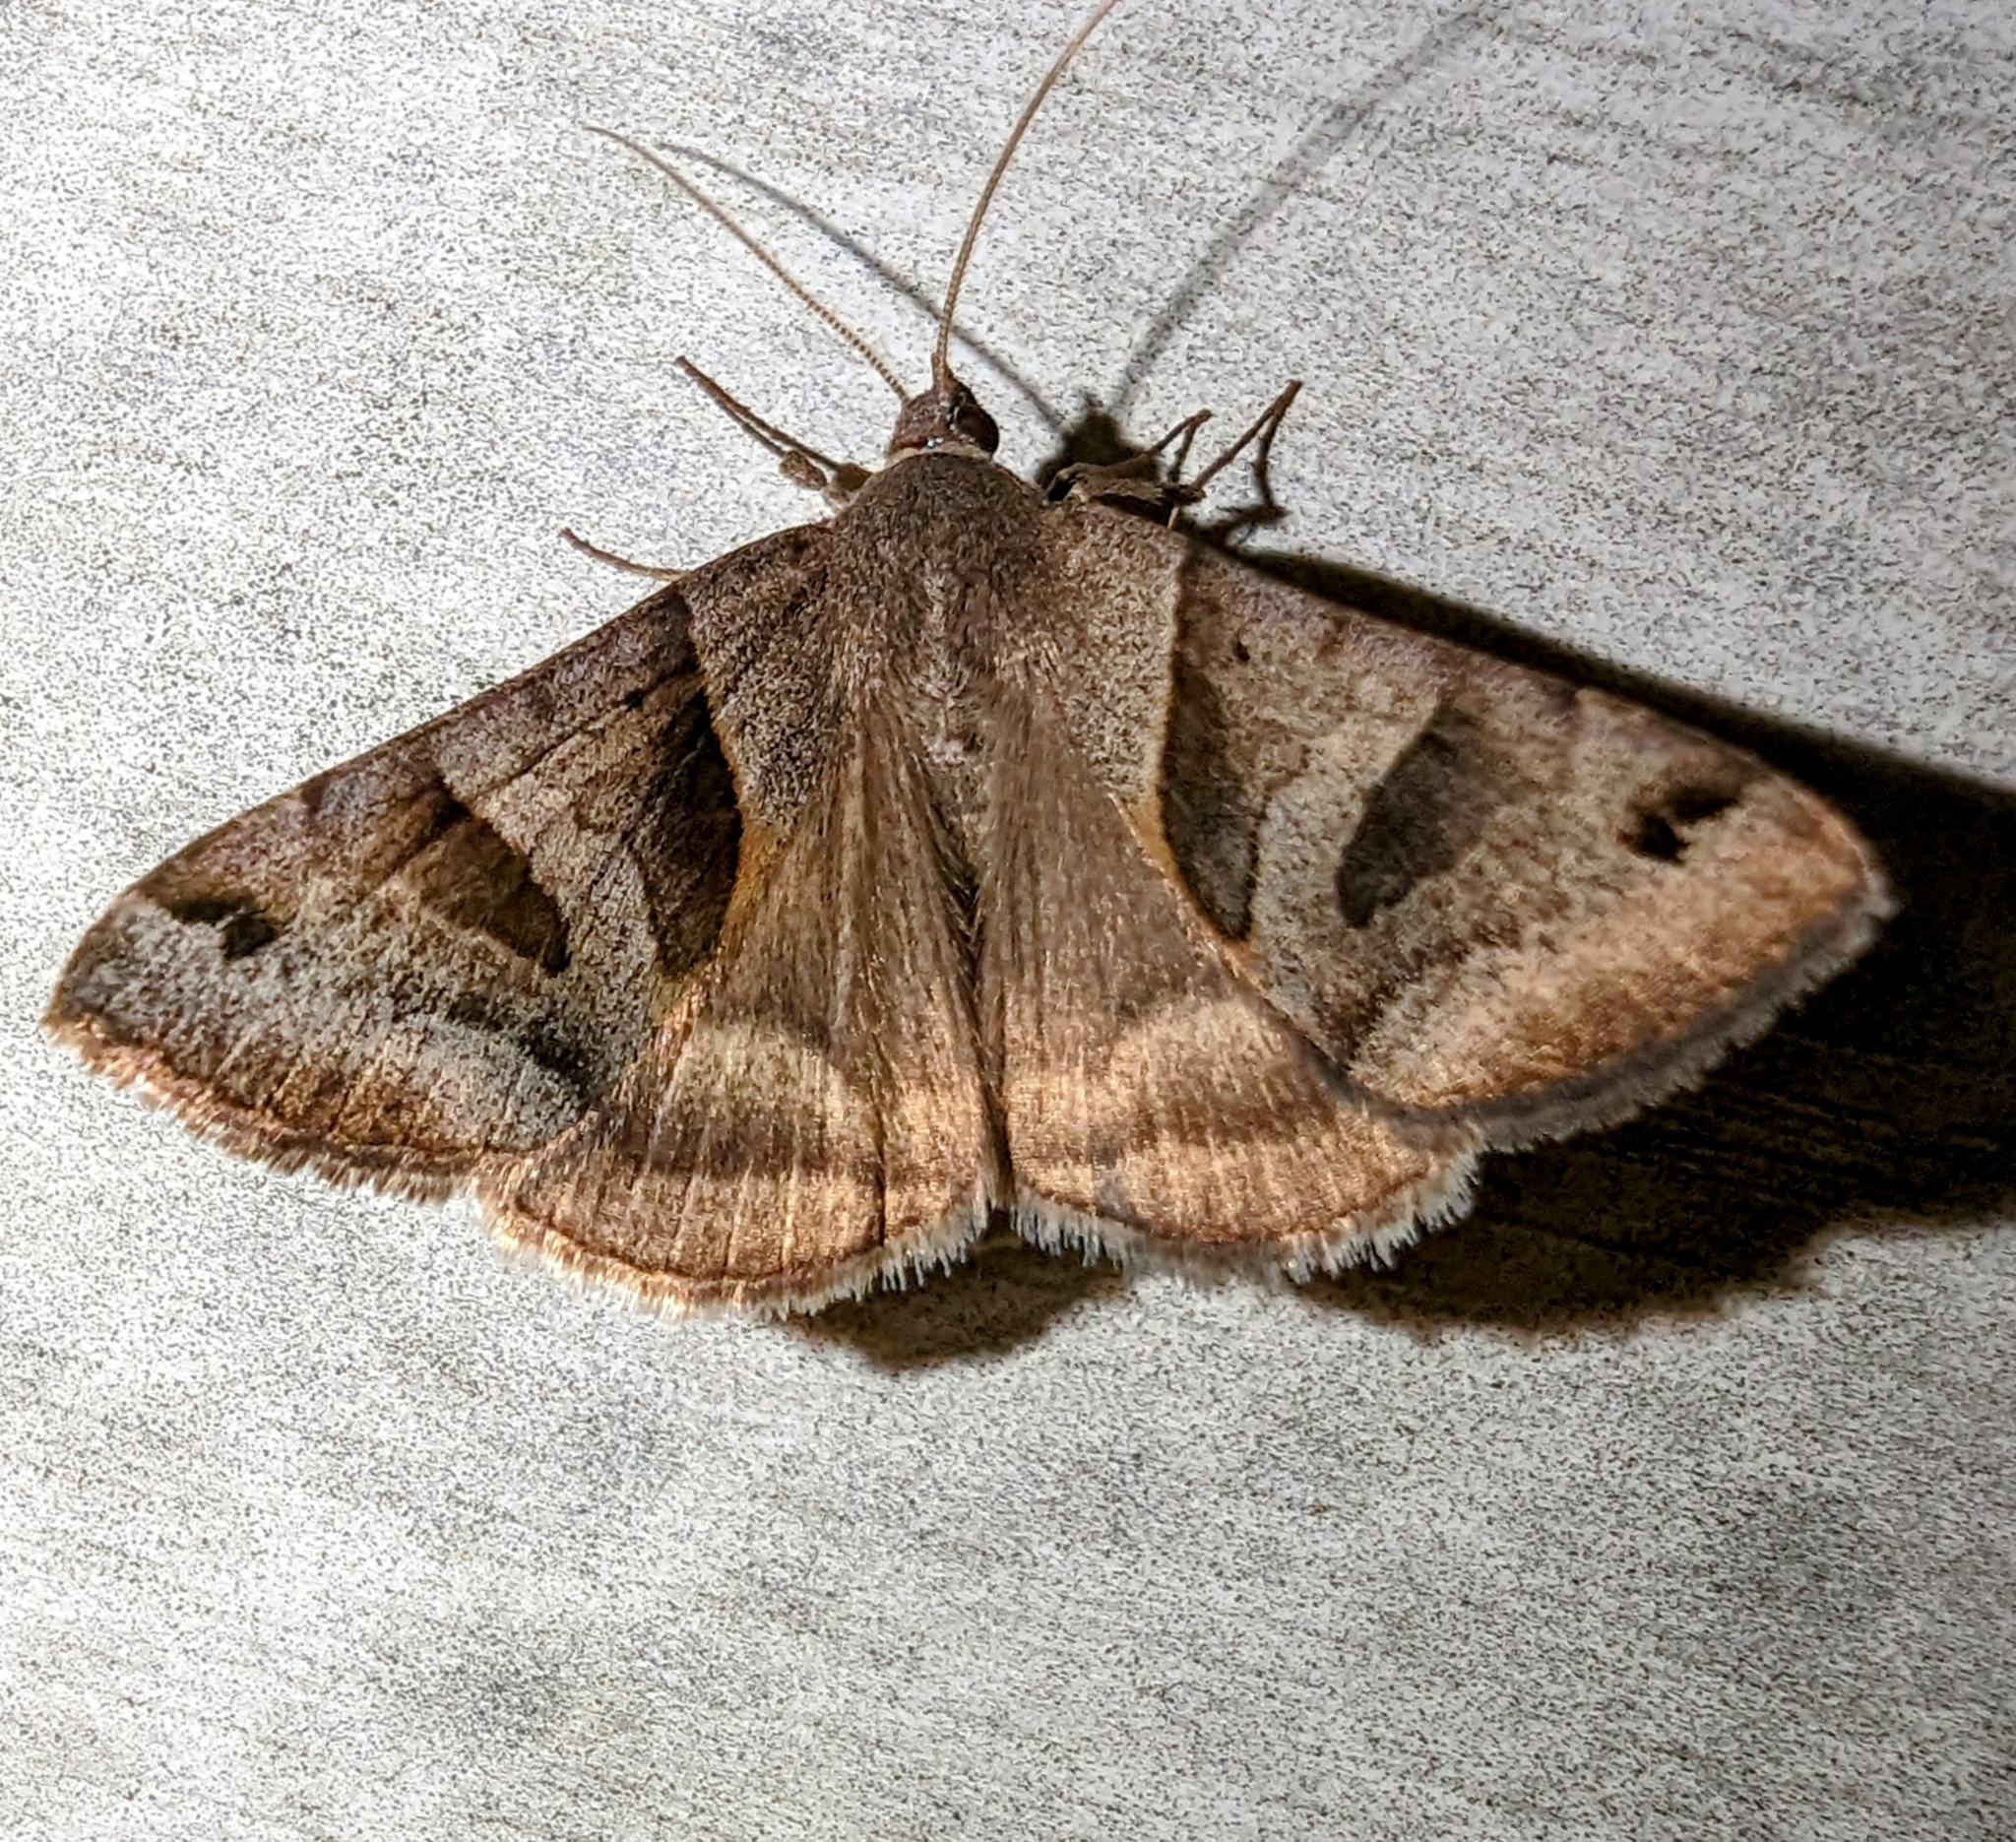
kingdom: Animalia
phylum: Arthropoda
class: Insecta
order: Lepidoptera
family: Erebidae
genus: Caenurgina
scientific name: Caenurgina erechtea
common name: Forage looper moth
